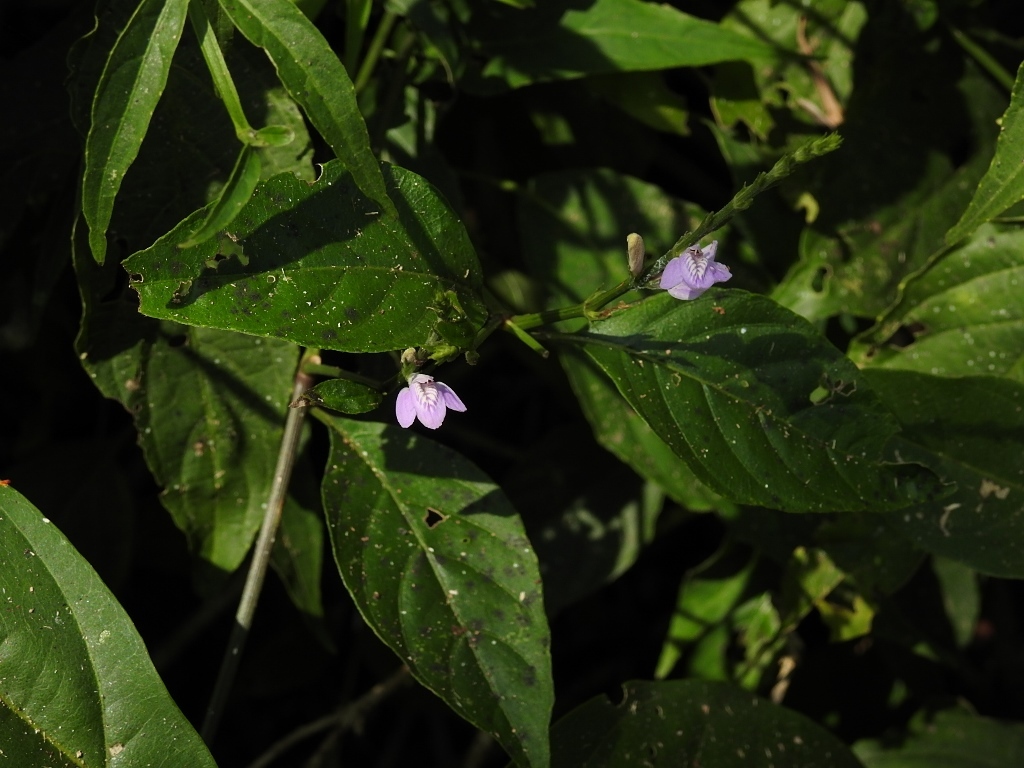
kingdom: Plantae
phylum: Tracheophyta
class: Magnoliopsida
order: Lamiales
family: Acanthaceae
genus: Dianthera
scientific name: Dianthera breviflora
